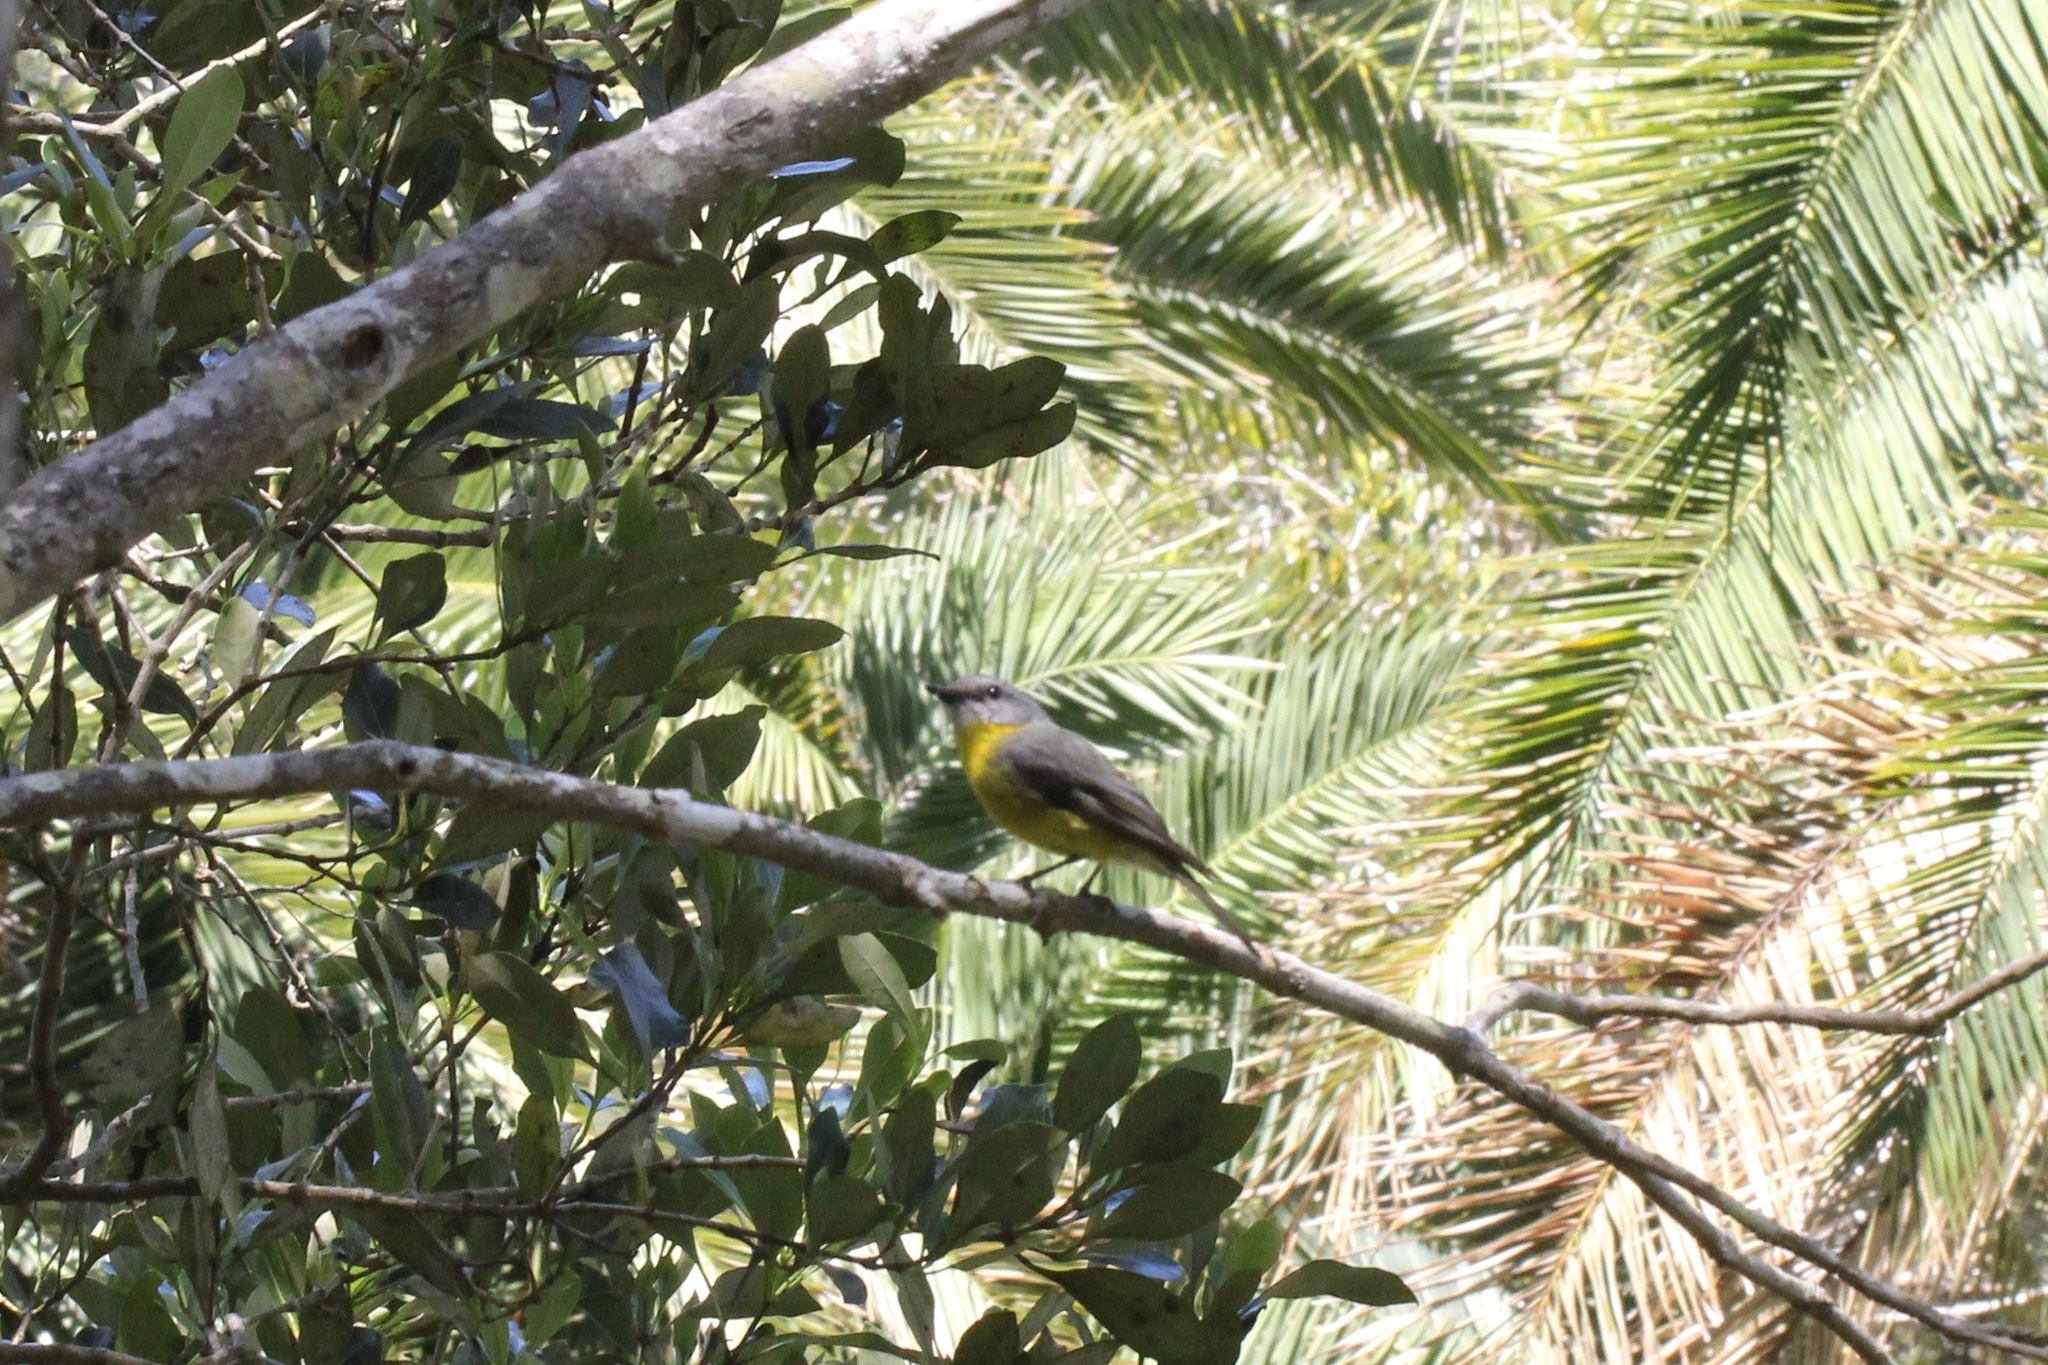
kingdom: Animalia
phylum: Chordata
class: Aves
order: Passeriformes
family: Petroicidae
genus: Eopsaltria
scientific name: Eopsaltria australis
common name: Eastern yellow robin
